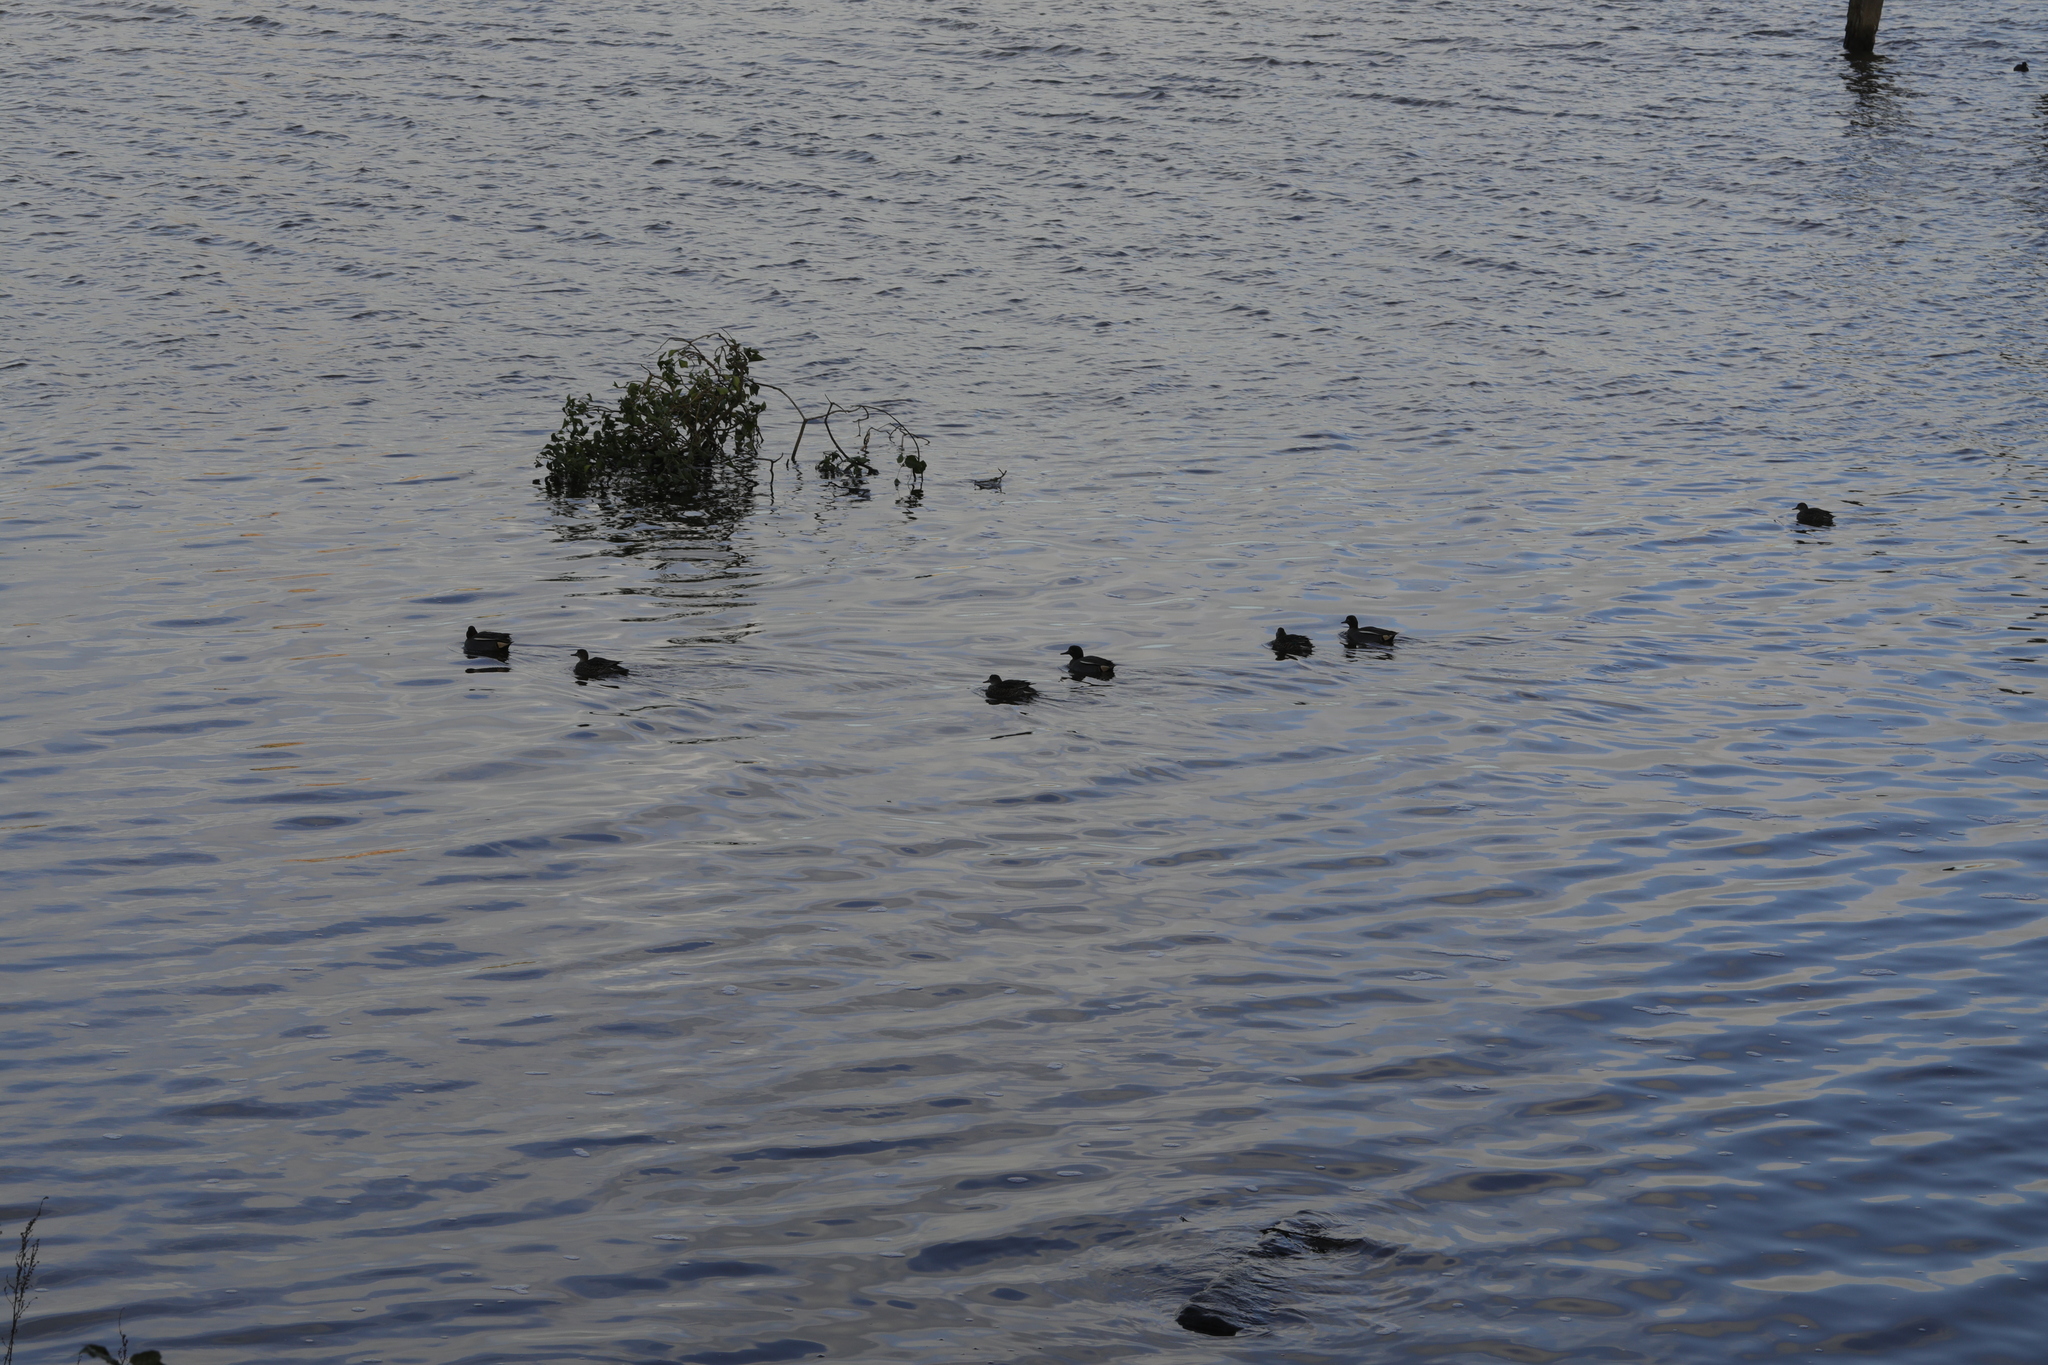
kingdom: Animalia
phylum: Chordata
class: Aves
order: Anseriformes
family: Anatidae
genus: Anas
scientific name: Anas crecca
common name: Eurasian teal
